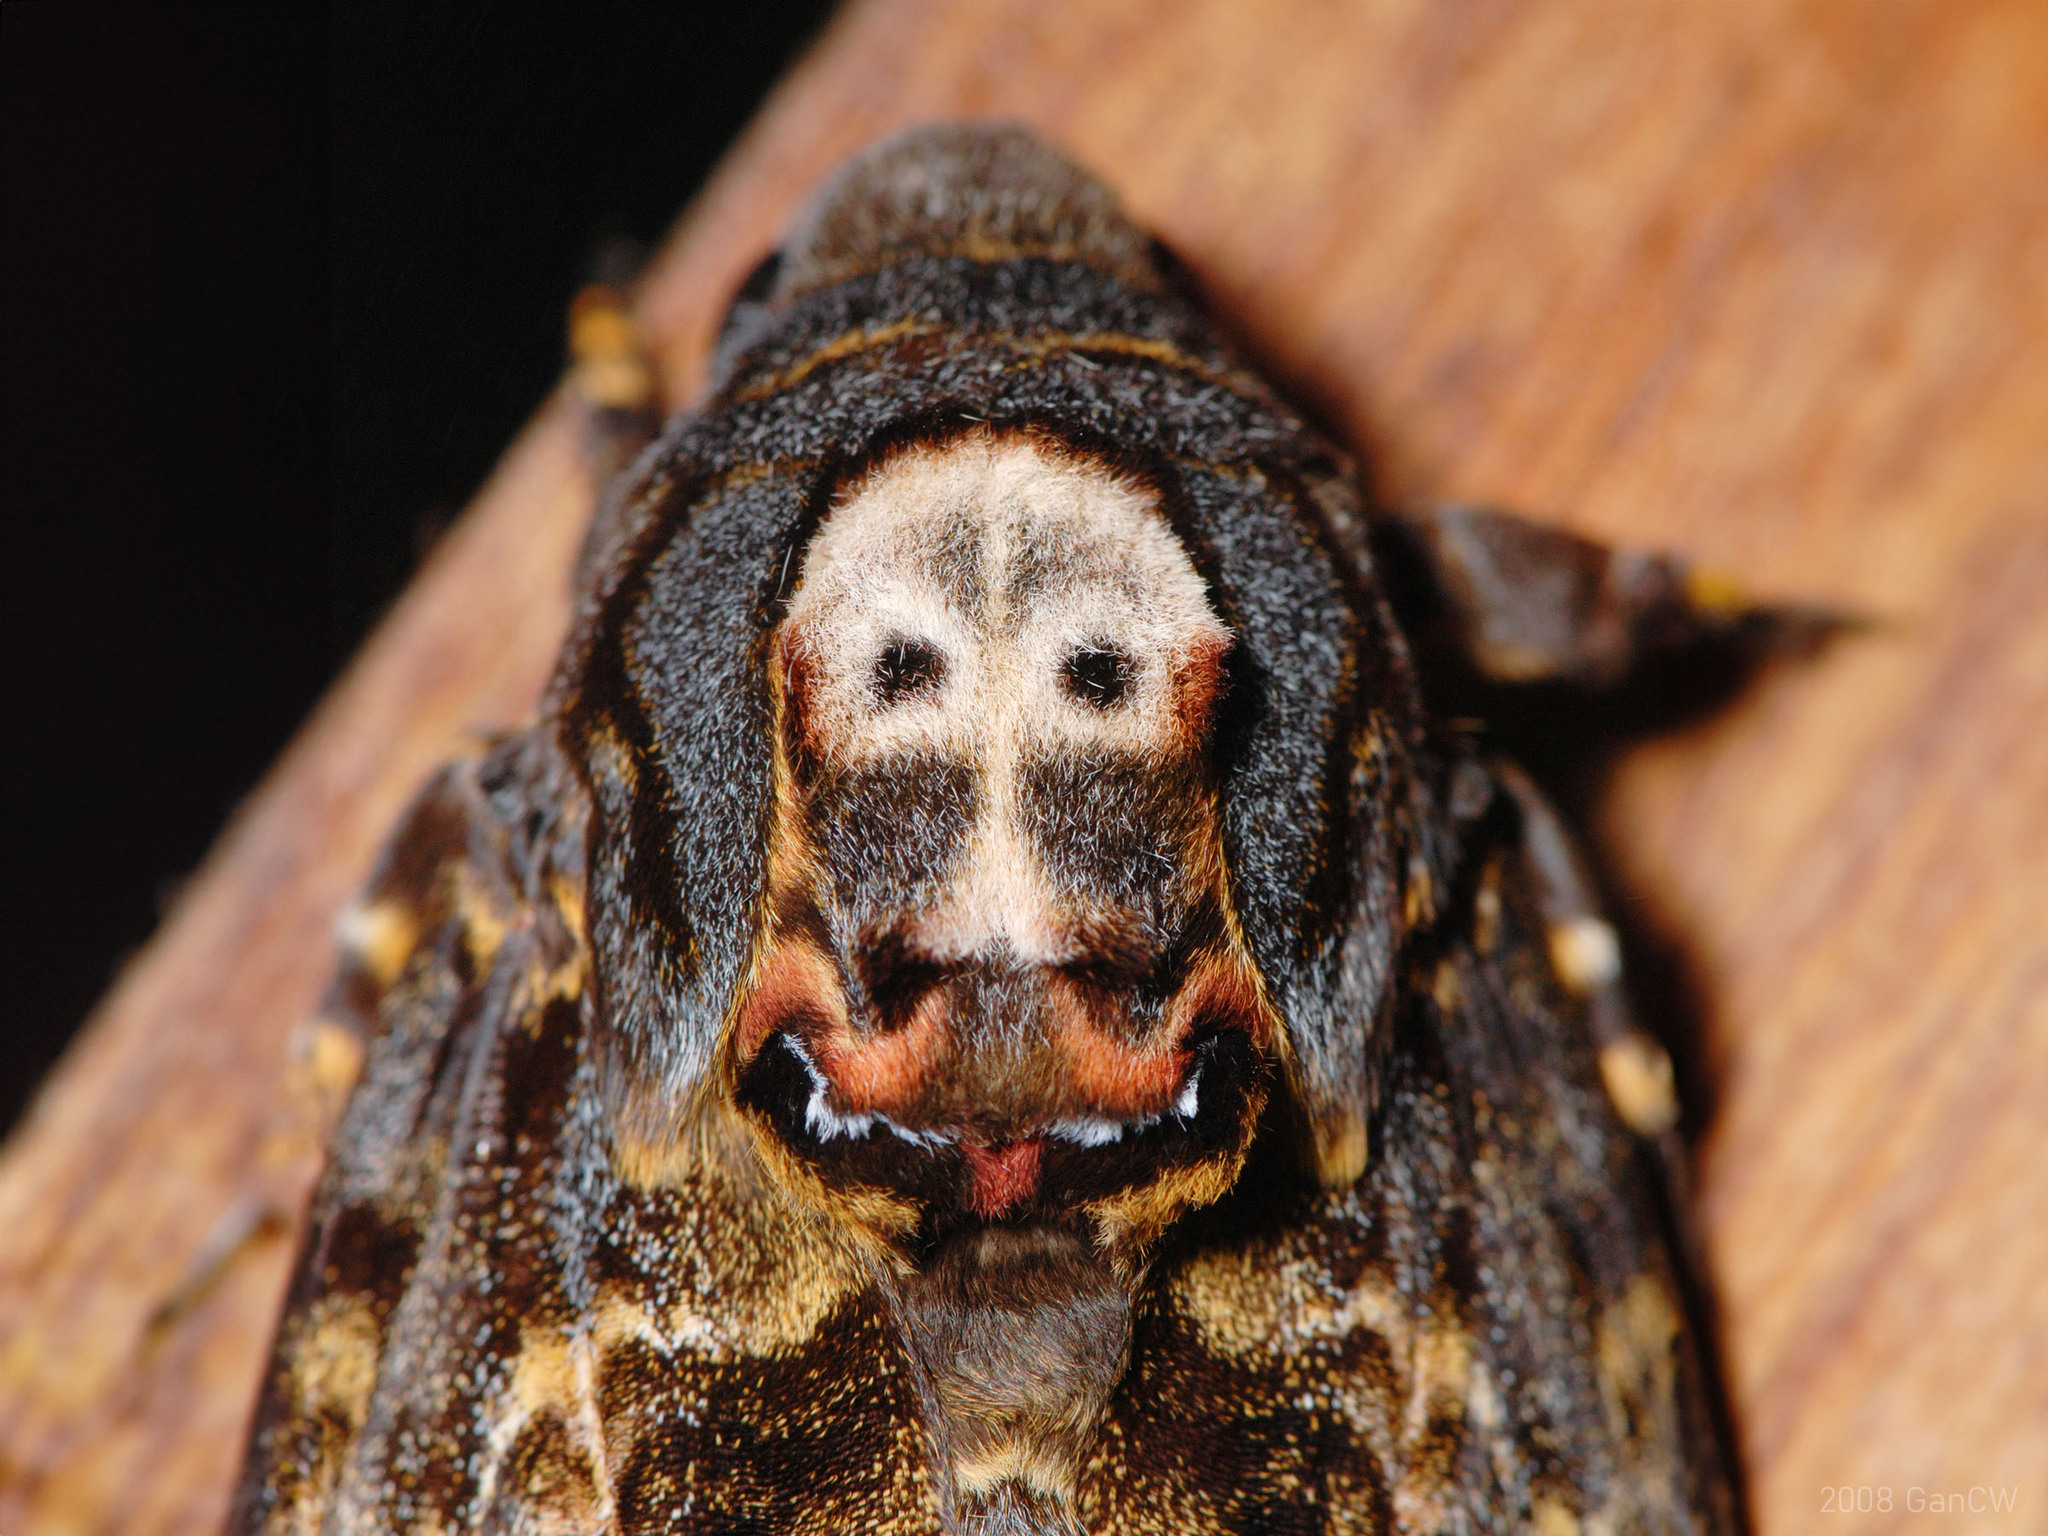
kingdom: Animalia
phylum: Arthropoda
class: Insecta
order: Lepidoptera
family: Sphingidae
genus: Acherontia
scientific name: Acherontia lachesis
